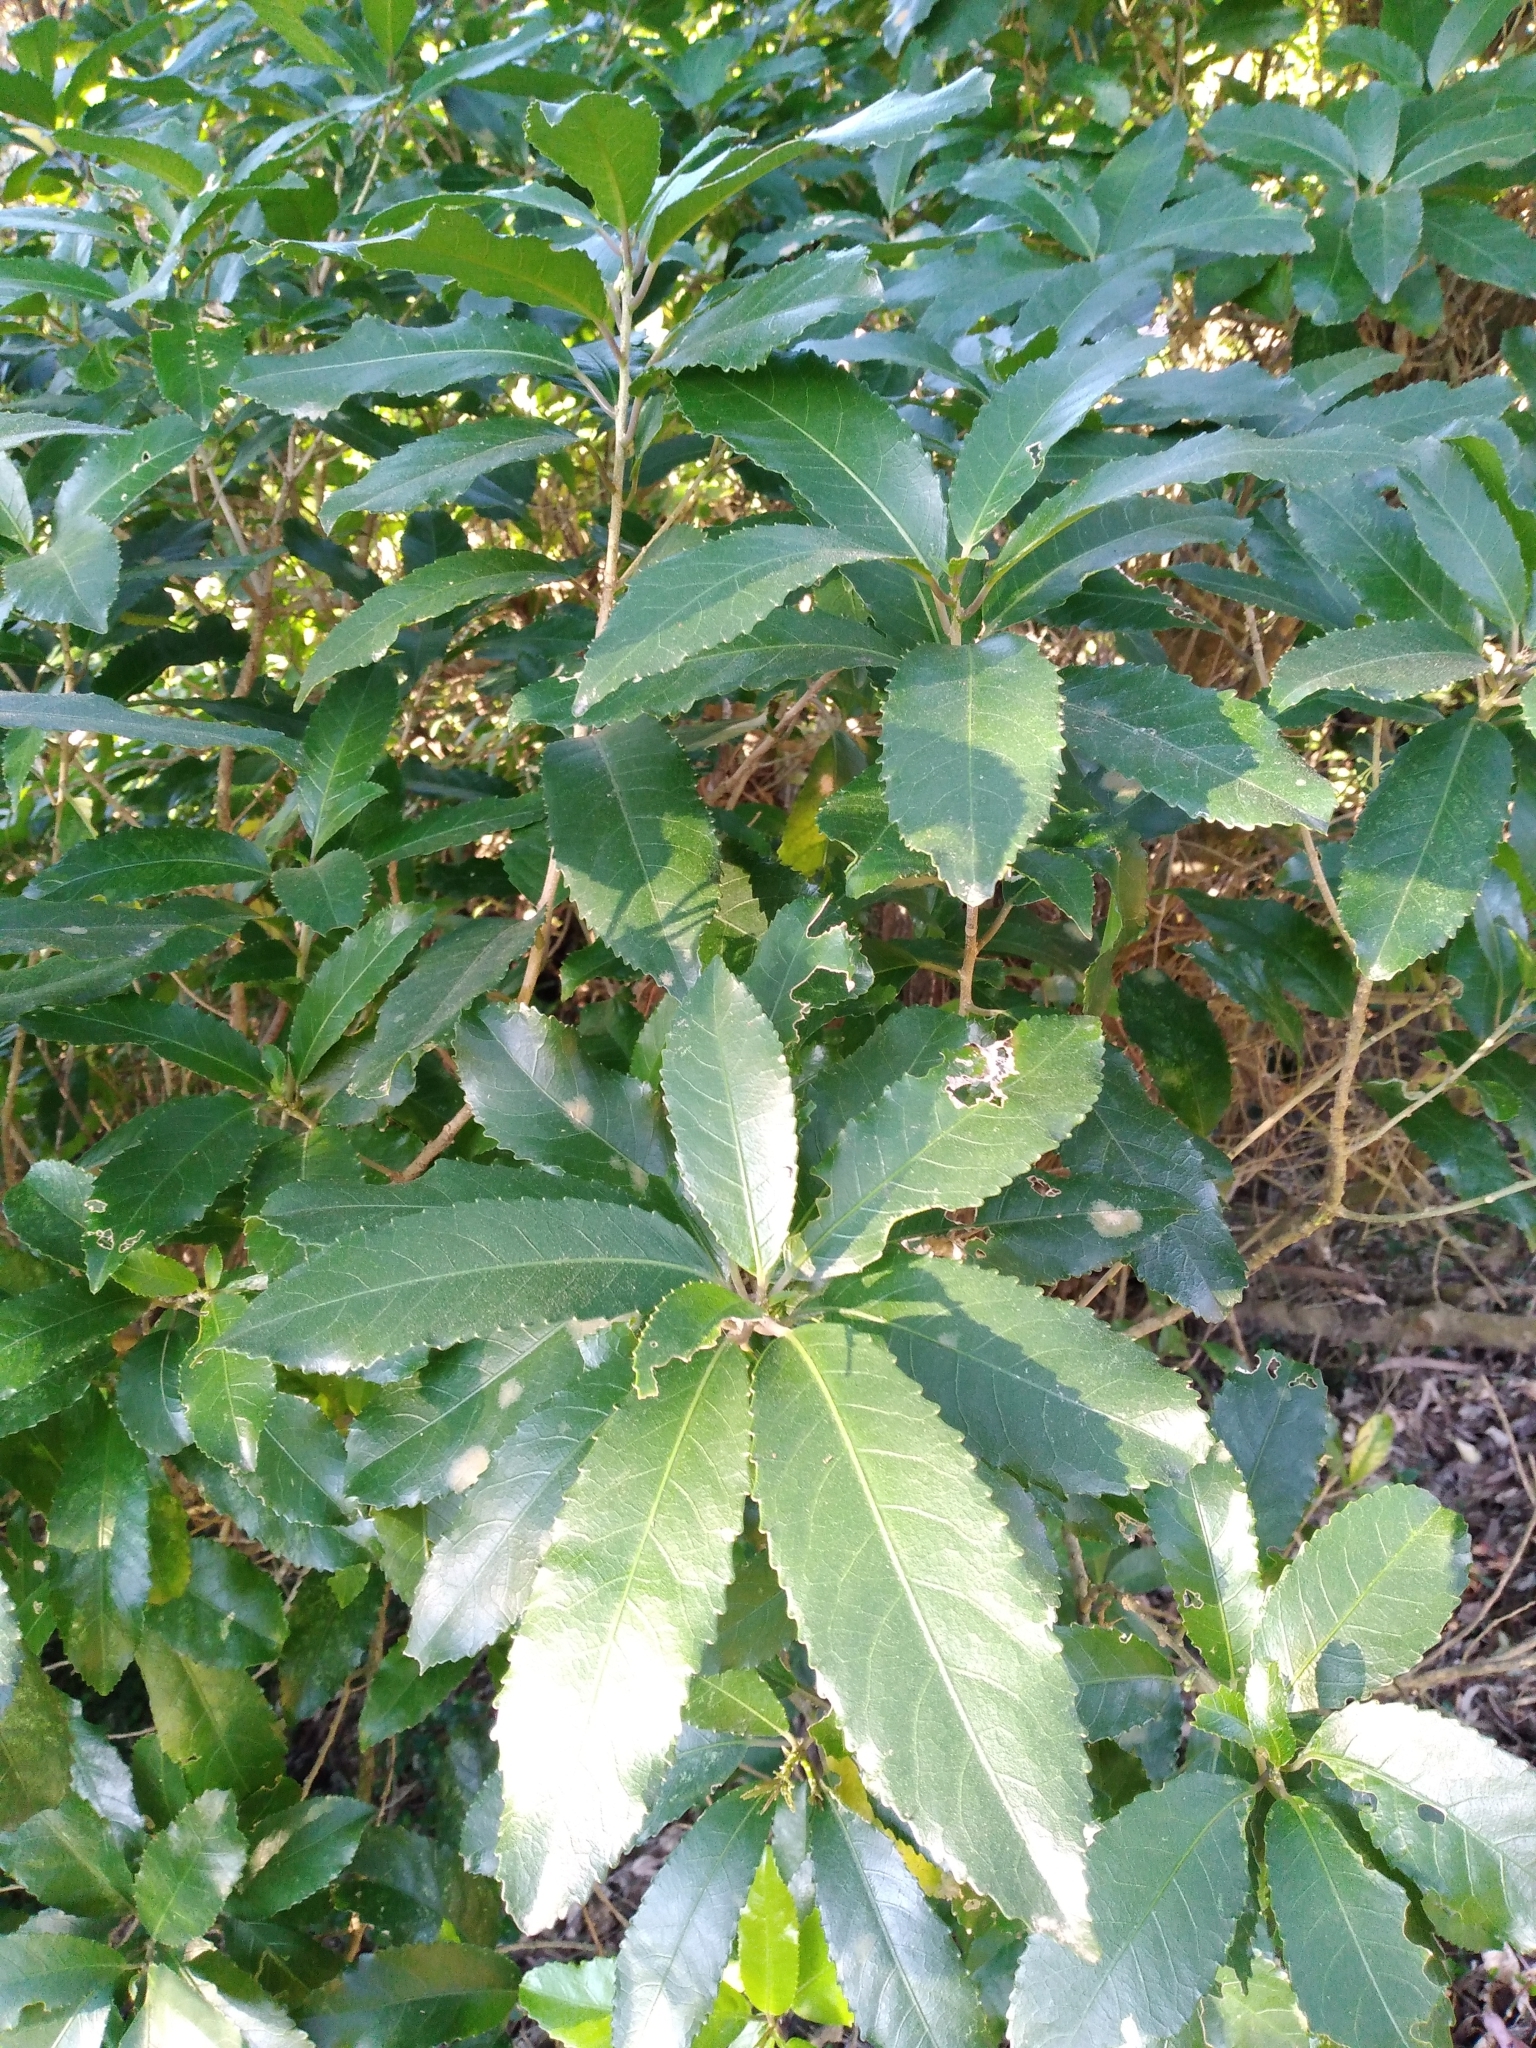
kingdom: Plantae
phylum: Tracheophyta
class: Magnoliopsida
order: Malpighiales
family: Violaceae
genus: Melicytus
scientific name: Melicytus ramiflorus
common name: Mahoe
